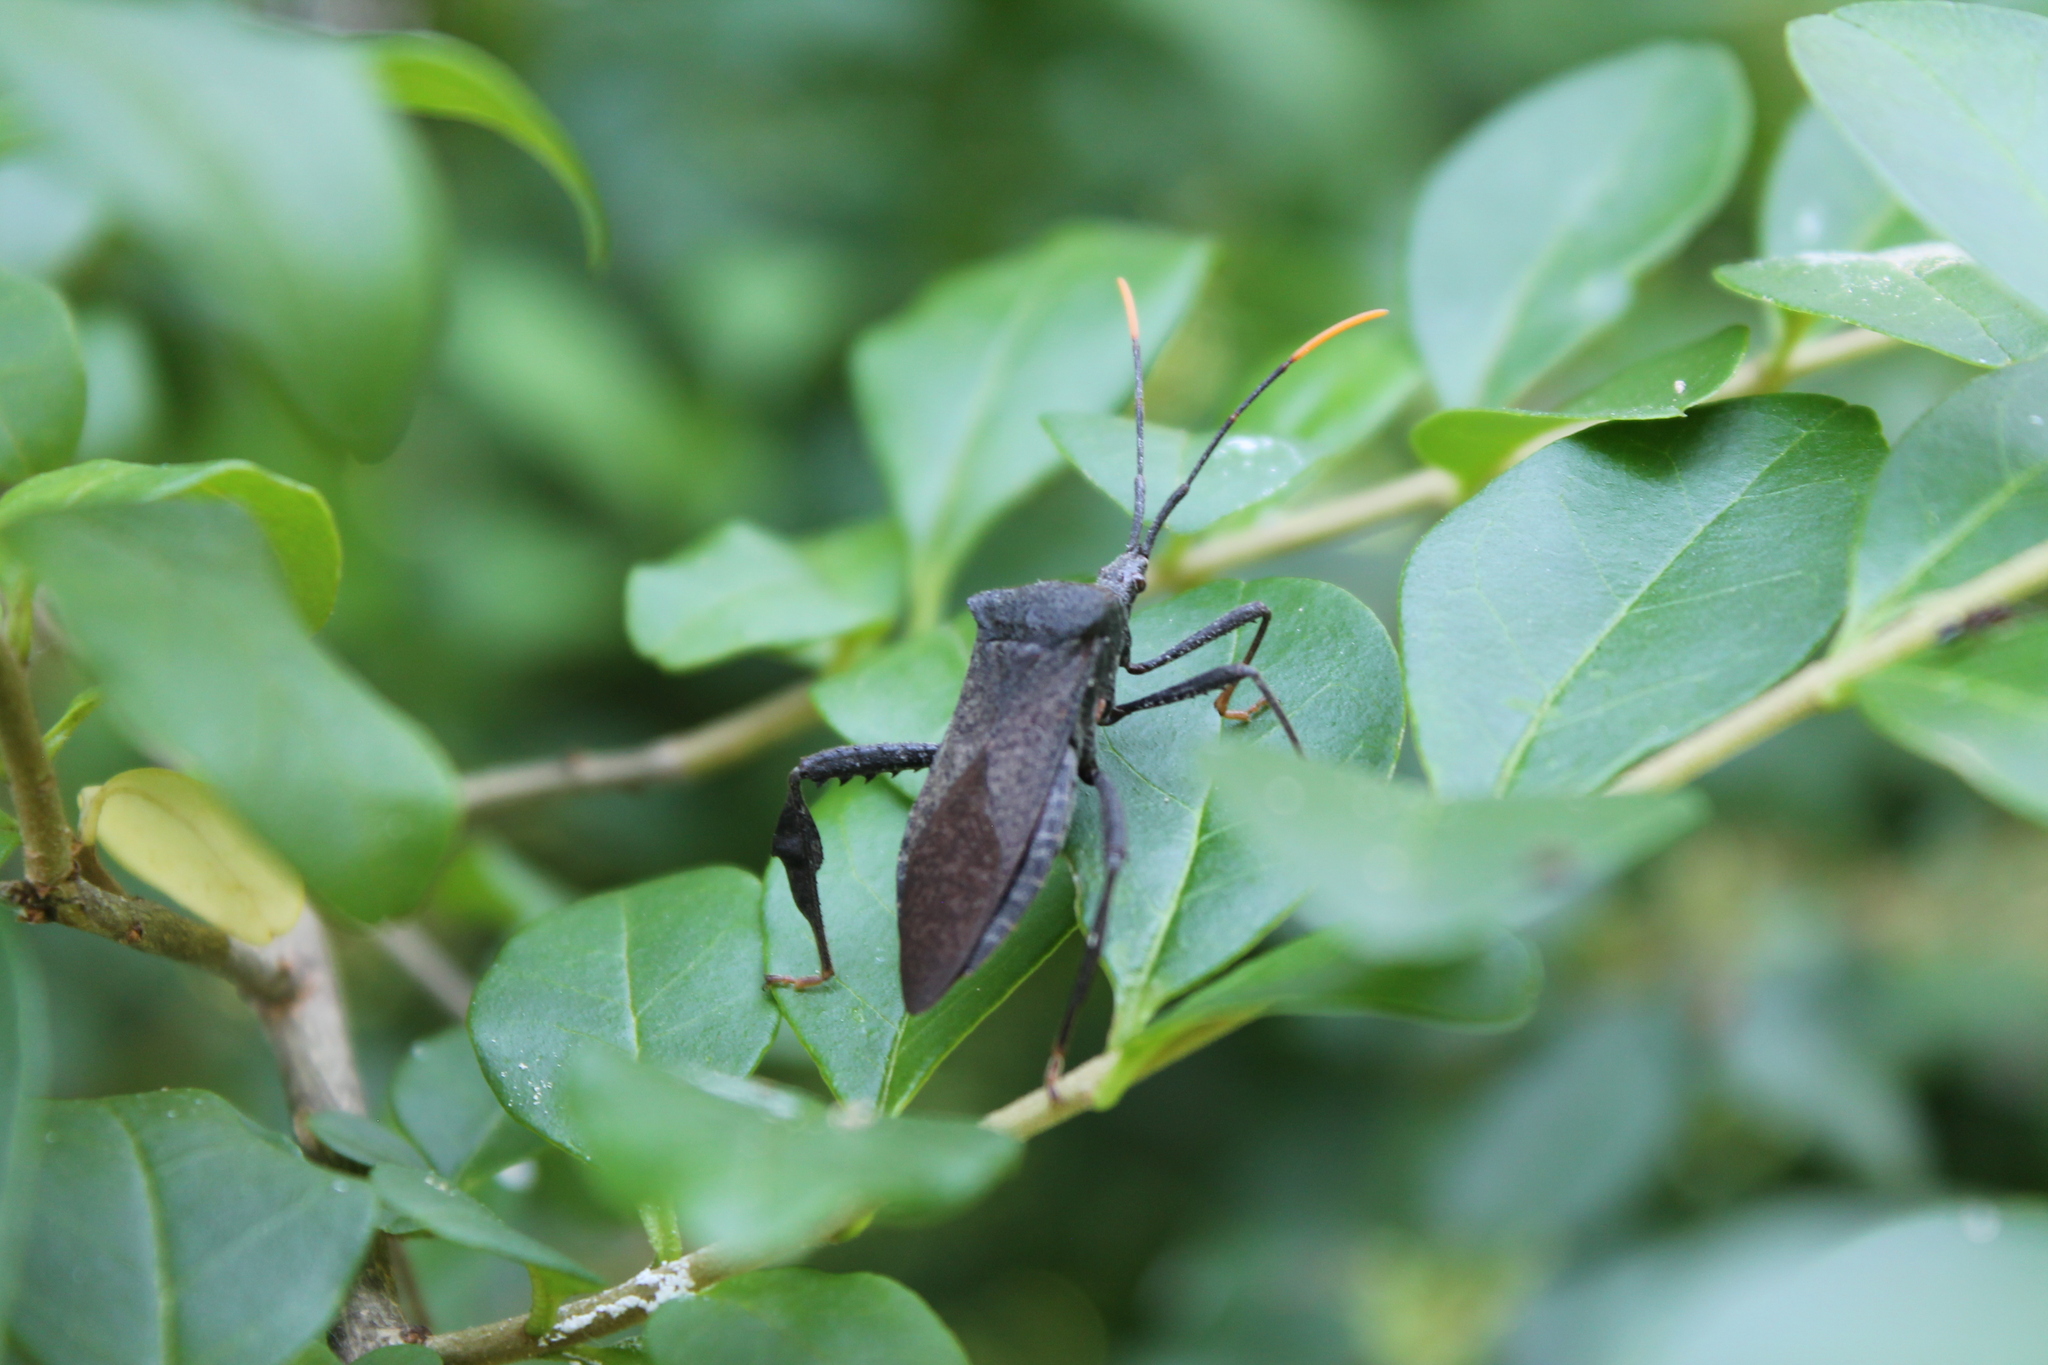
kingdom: Animalia
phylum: Arthropoda
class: Insecta
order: Hemiptera
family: Coreidae
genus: Acanthocephala
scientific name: Acanthocephala terminalis
